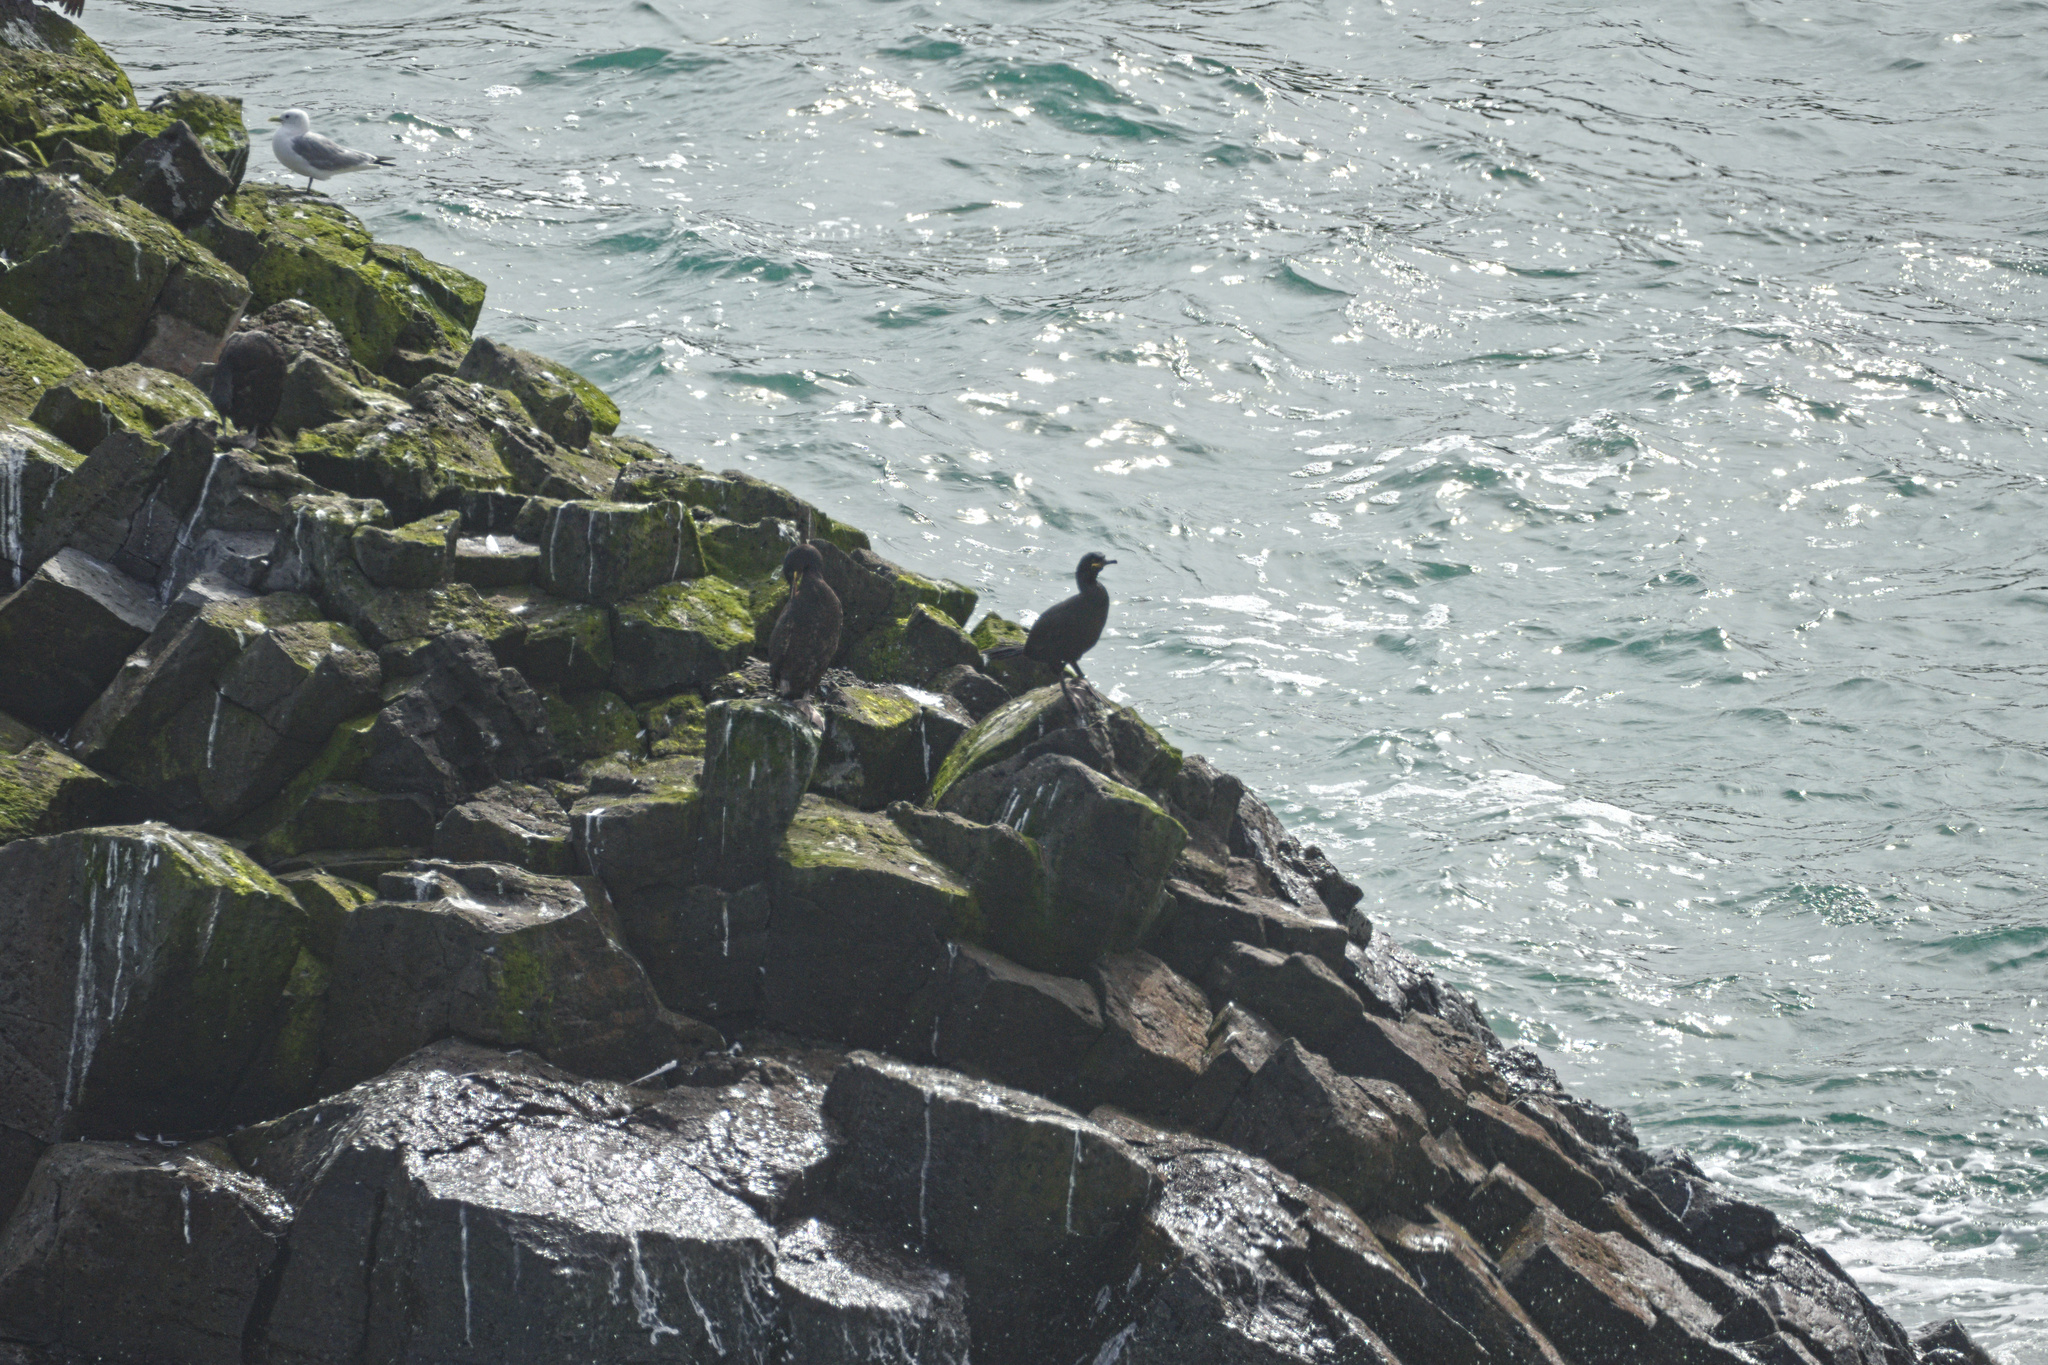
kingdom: Animalia
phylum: Chordata
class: Aves
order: Suliformes
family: Phalacrocoracidae
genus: Phalacrocorax
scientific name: Phalacrocorax aristotelis
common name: European shag
